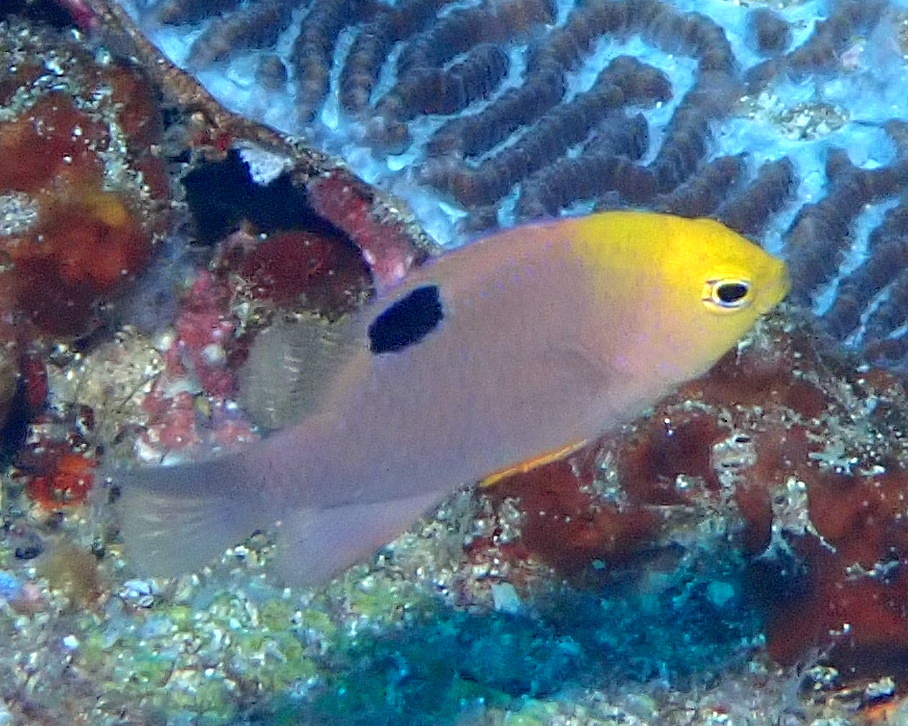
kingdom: Animalia
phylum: Chordata
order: Perciformes
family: Pomacentridae
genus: Chrysiptera
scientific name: Chrysiptera talboti
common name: Talbot's demoiselle
